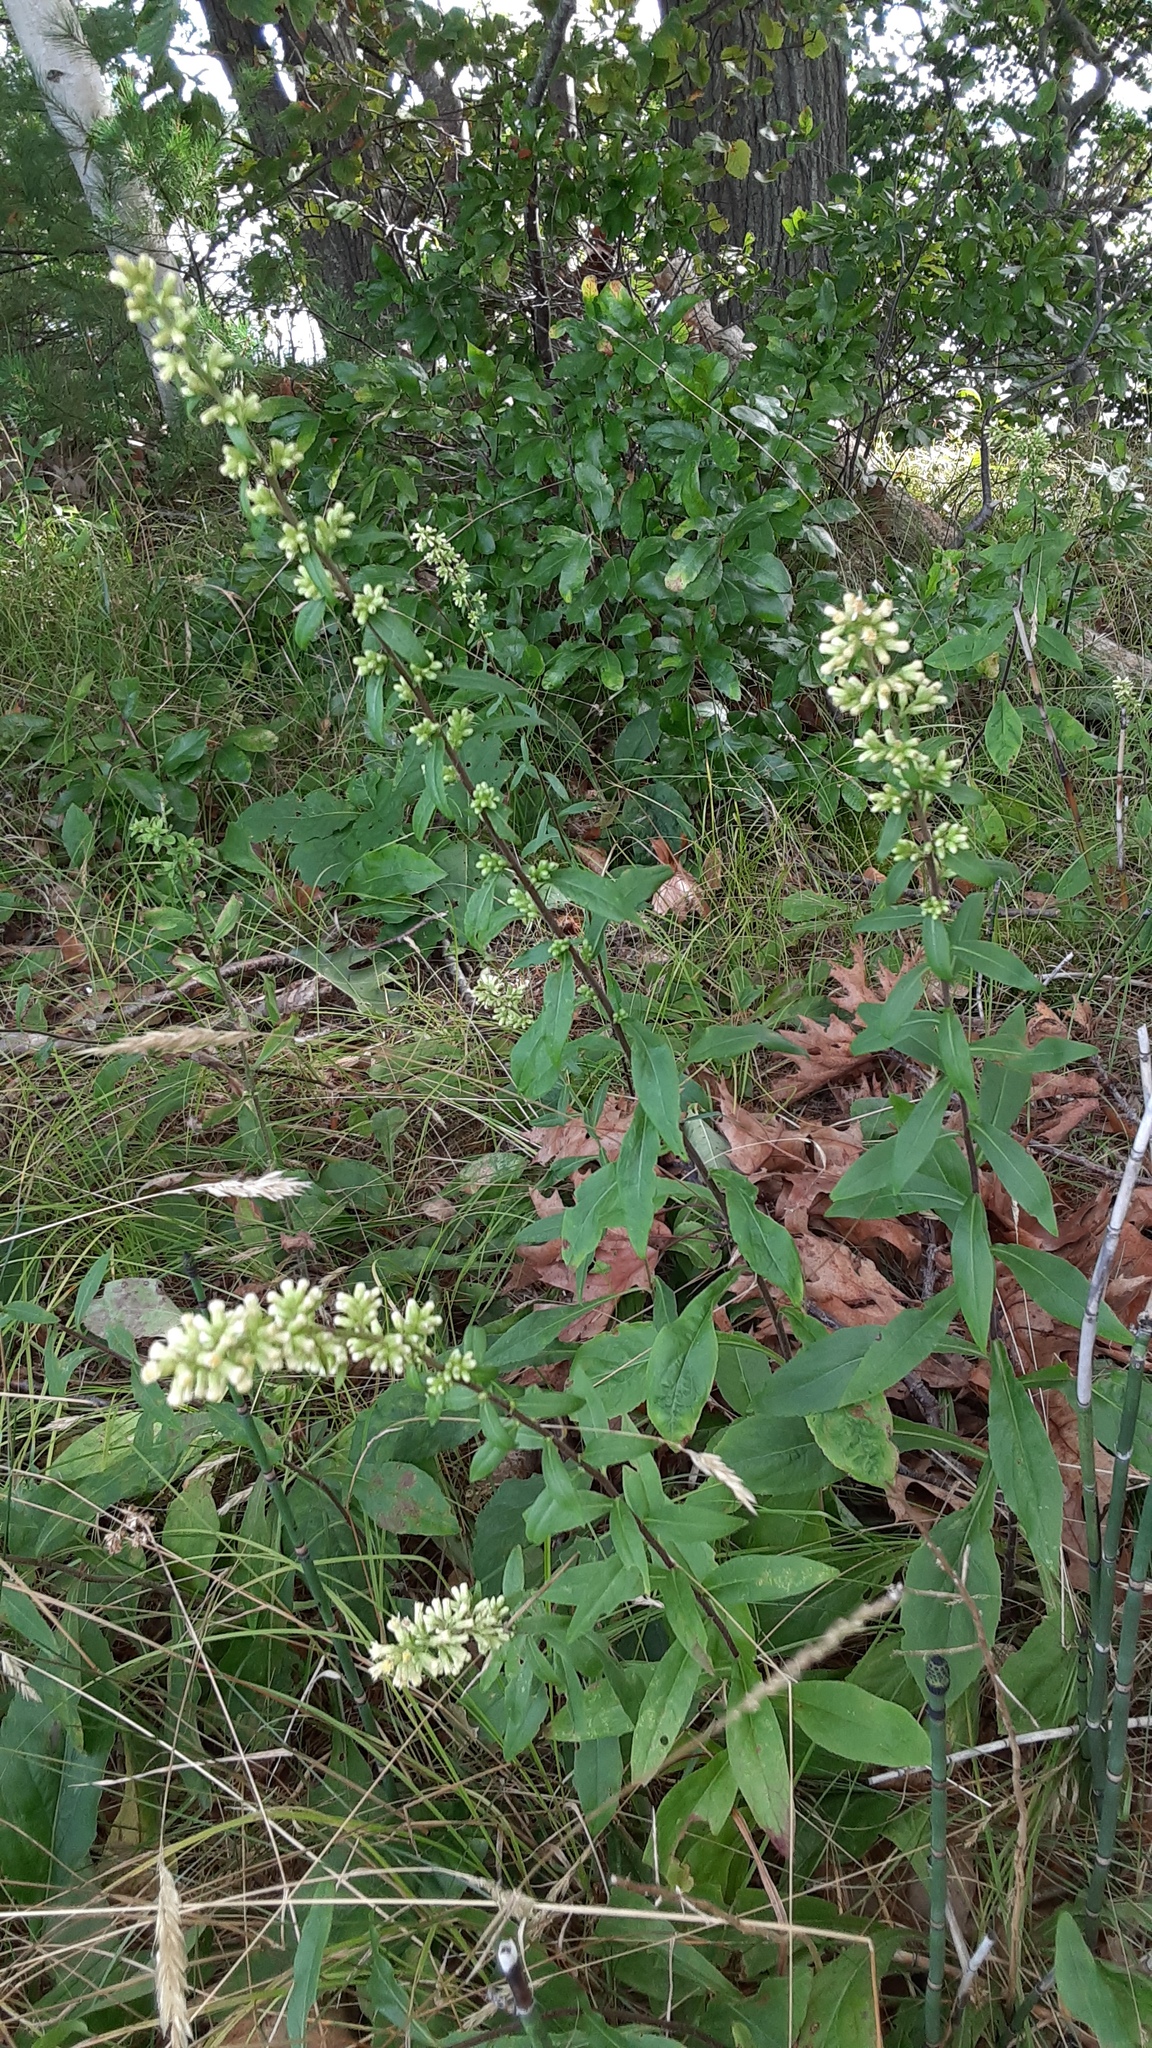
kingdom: Plantae
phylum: Tracheophyta
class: Magnoliopsida
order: Asterales
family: Asteraceae
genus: Solidago
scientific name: Solidago bicolor
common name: Silverrod
